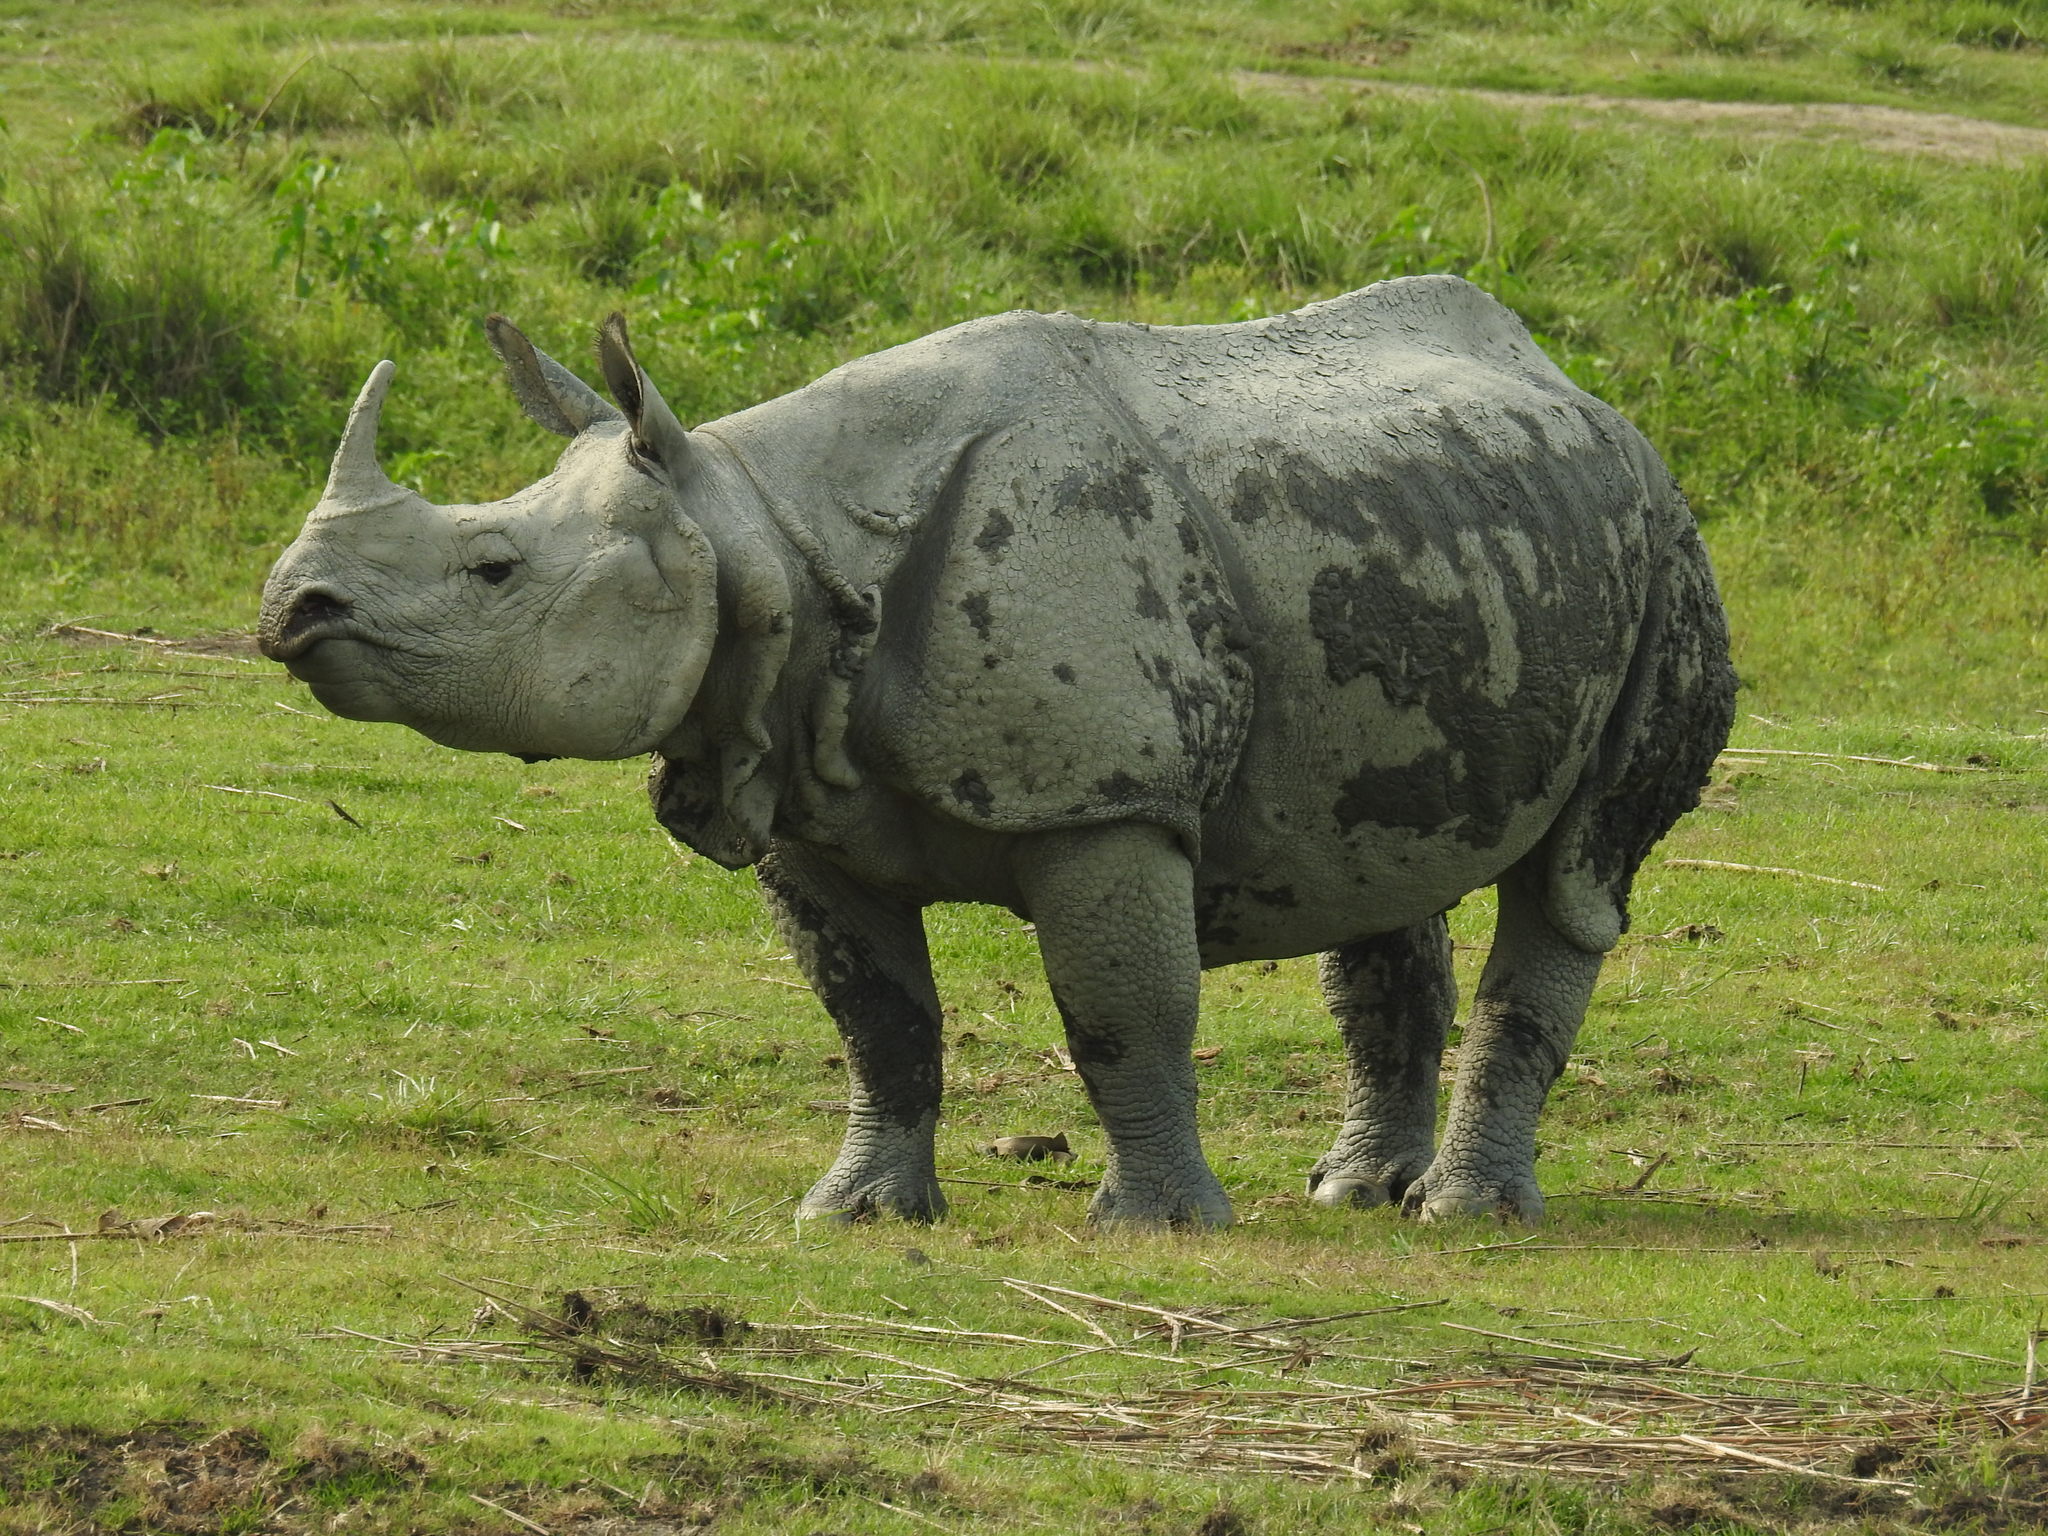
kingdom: Animalia
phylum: Chordata
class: Mammalia
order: Perissodactyla
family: Rhinocerotidae
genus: Rhinoceros
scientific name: Rhinoceros unicornis
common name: Indian rhinoceros
